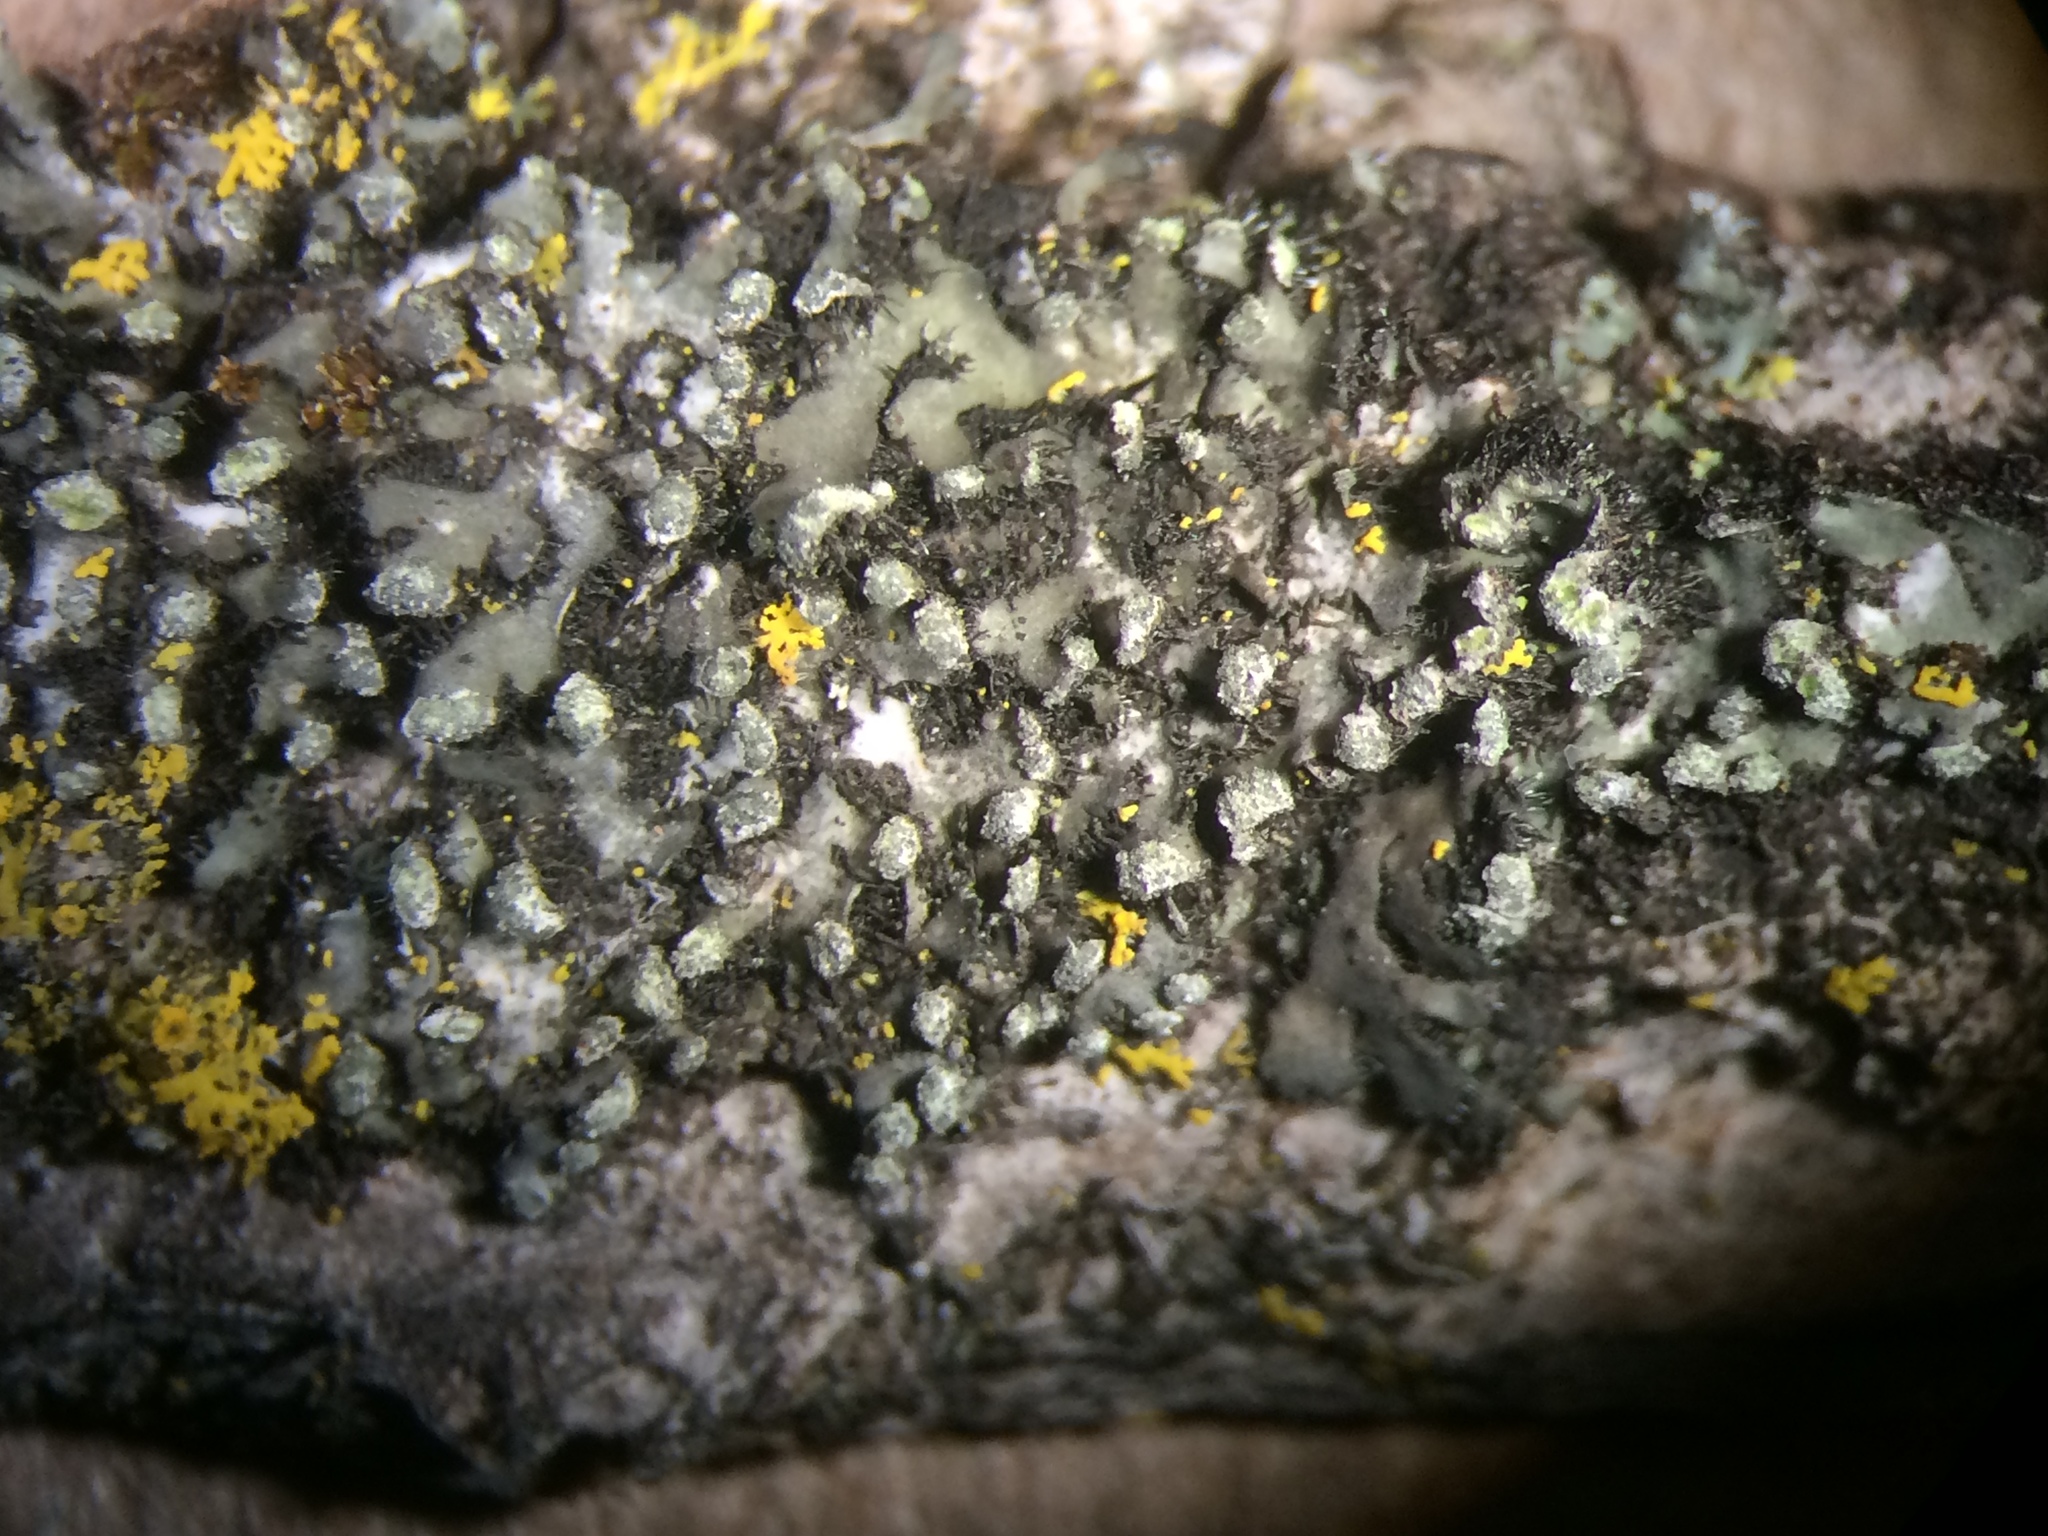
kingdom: Fungi
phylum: Ascomycota
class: Lecanoromycetes
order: Caliciales
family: Physciaceae
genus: Phaeophyscia
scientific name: Phaeophyscia pusilloides
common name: Pom-pom shadow lichen
